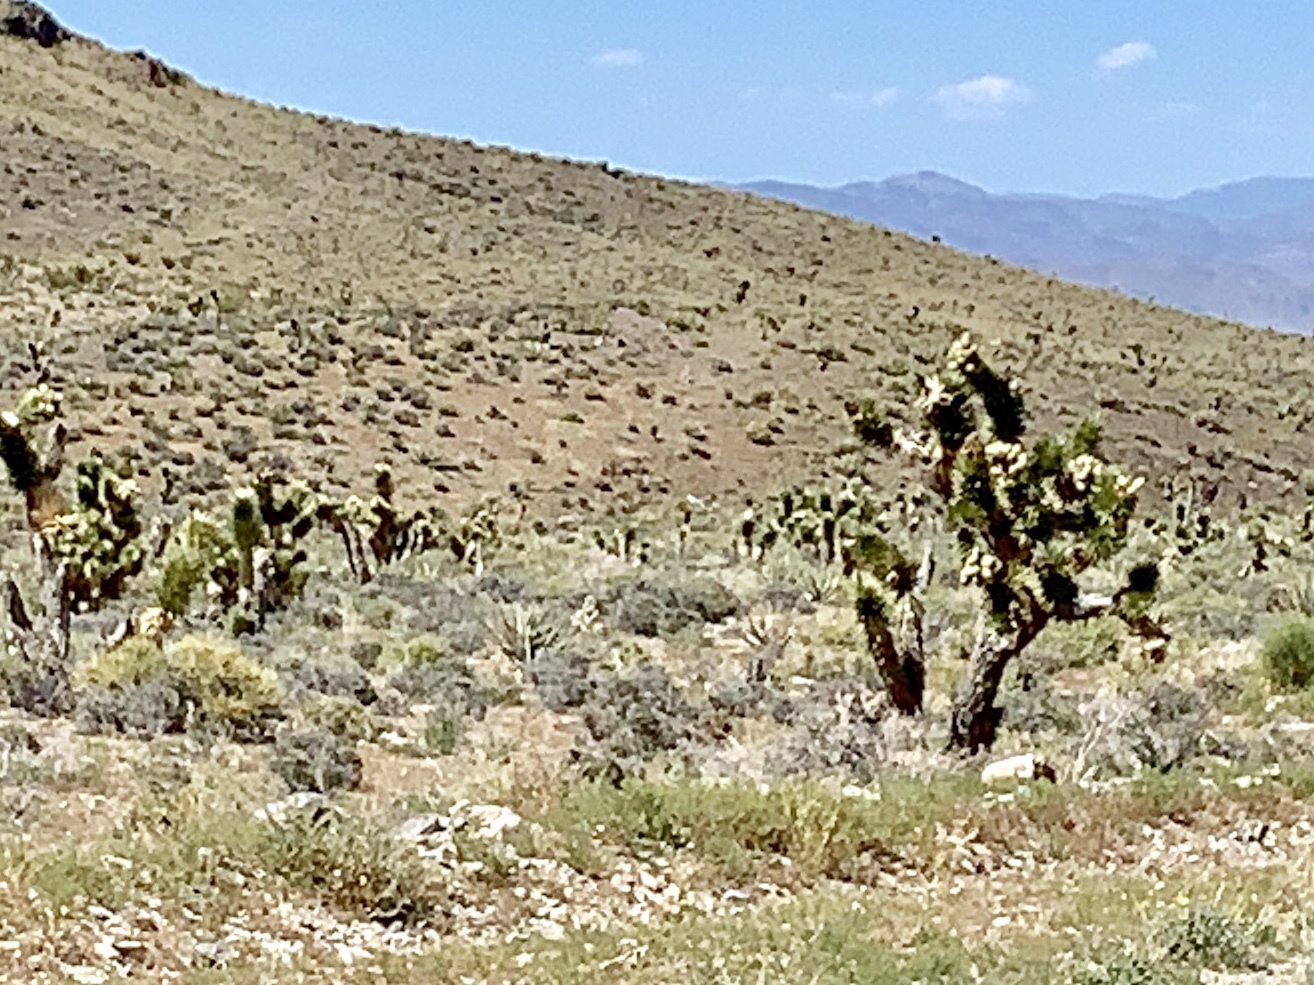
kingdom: Plantae
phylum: Tracheophyta
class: Liliopsida
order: Asparagales
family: Asparagaceae
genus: Yucca
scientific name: Yucca brevifolia
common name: Joshua tree
